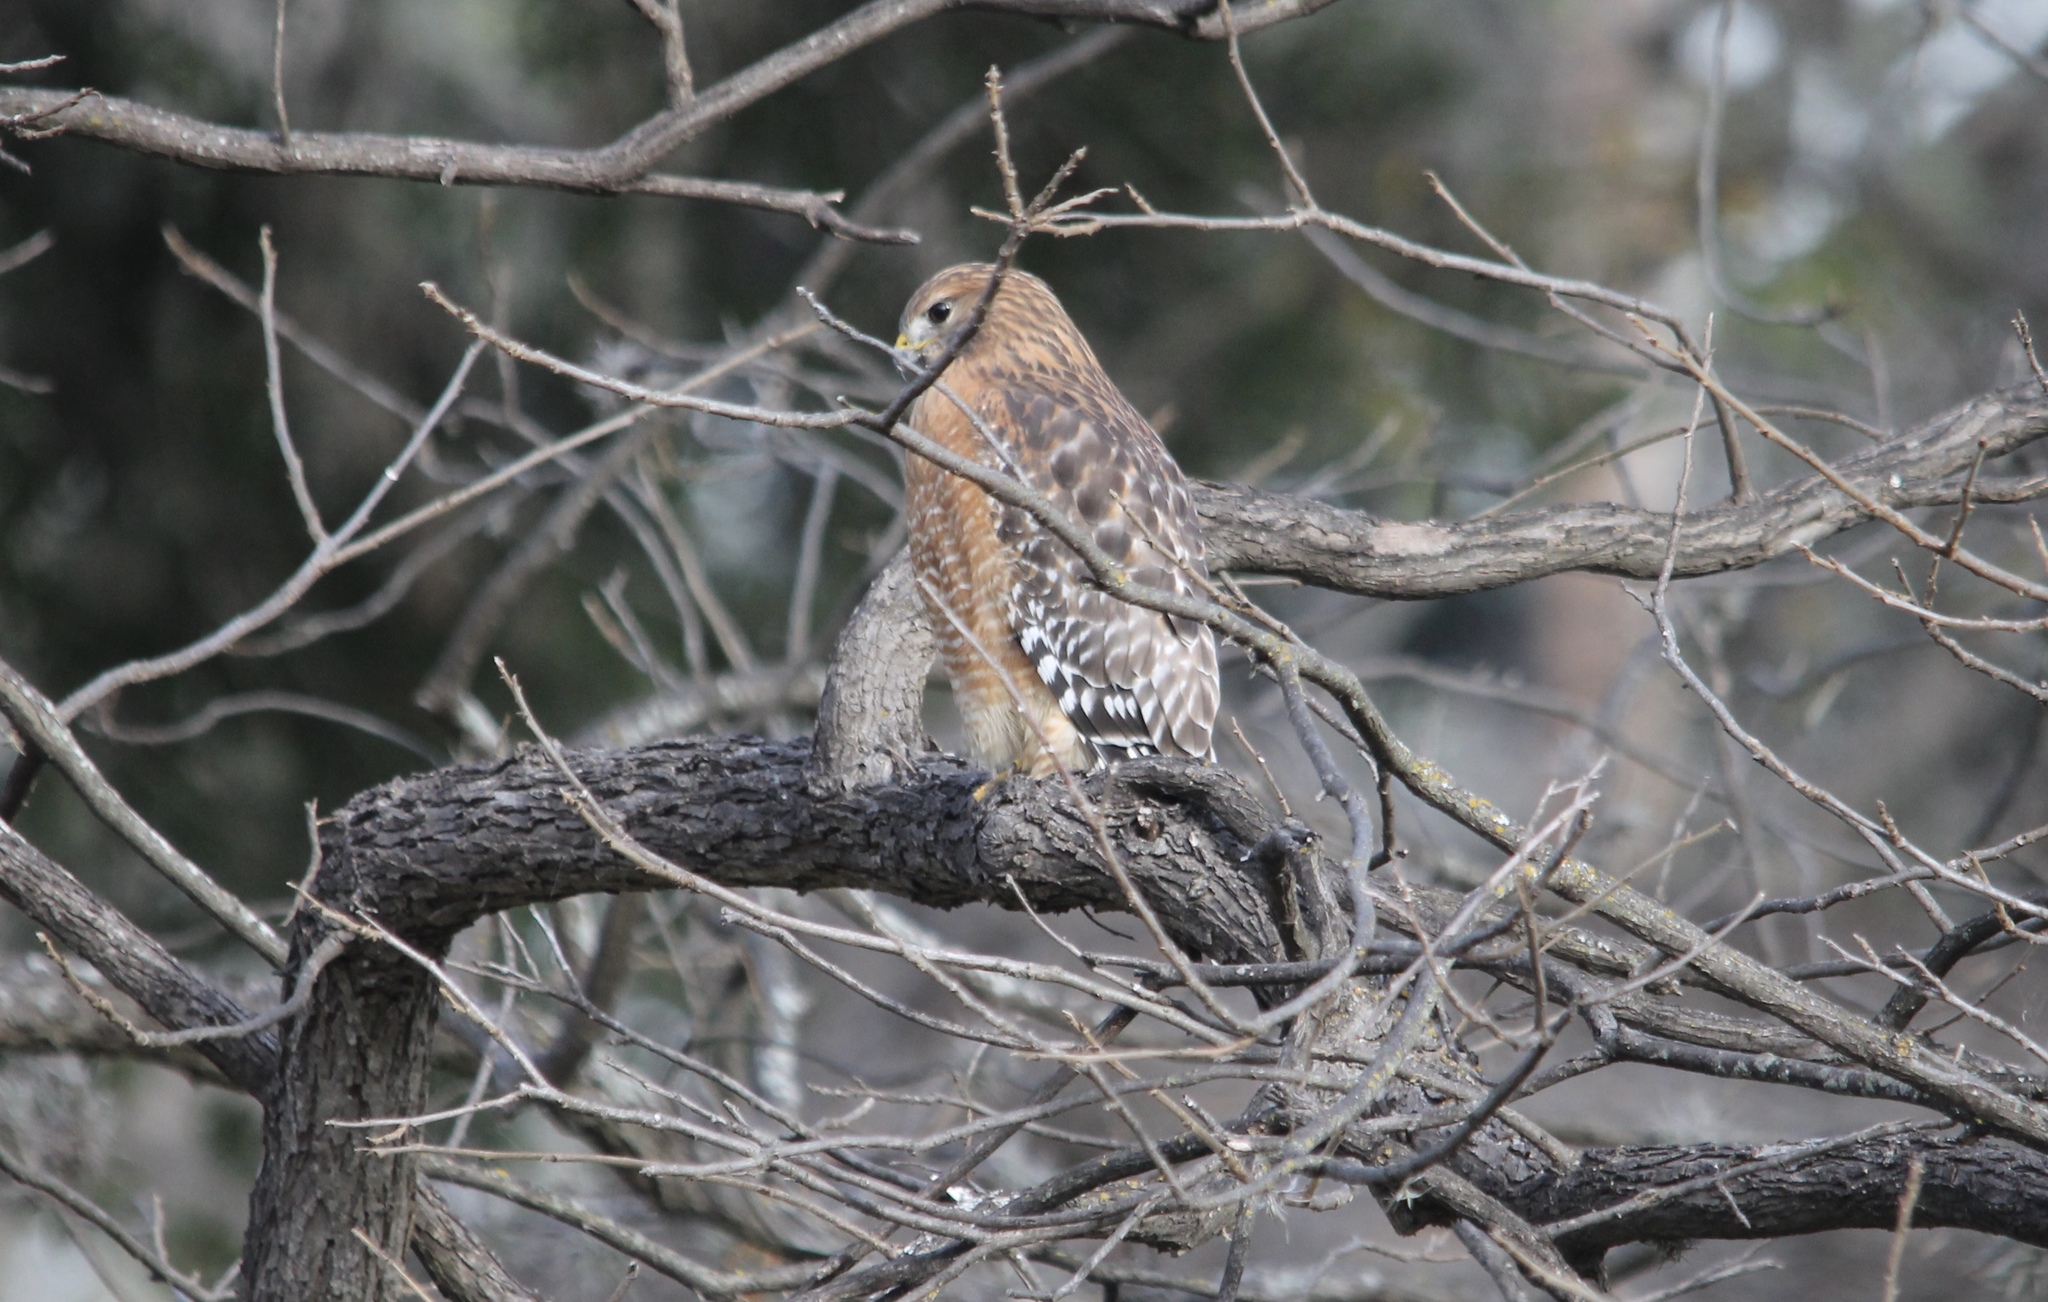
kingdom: Animalia
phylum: Chordata
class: Aves
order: Accipitriformes
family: Accipitridae
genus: Buteo
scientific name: Buteo lineatus
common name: Red-shouldered hawk
